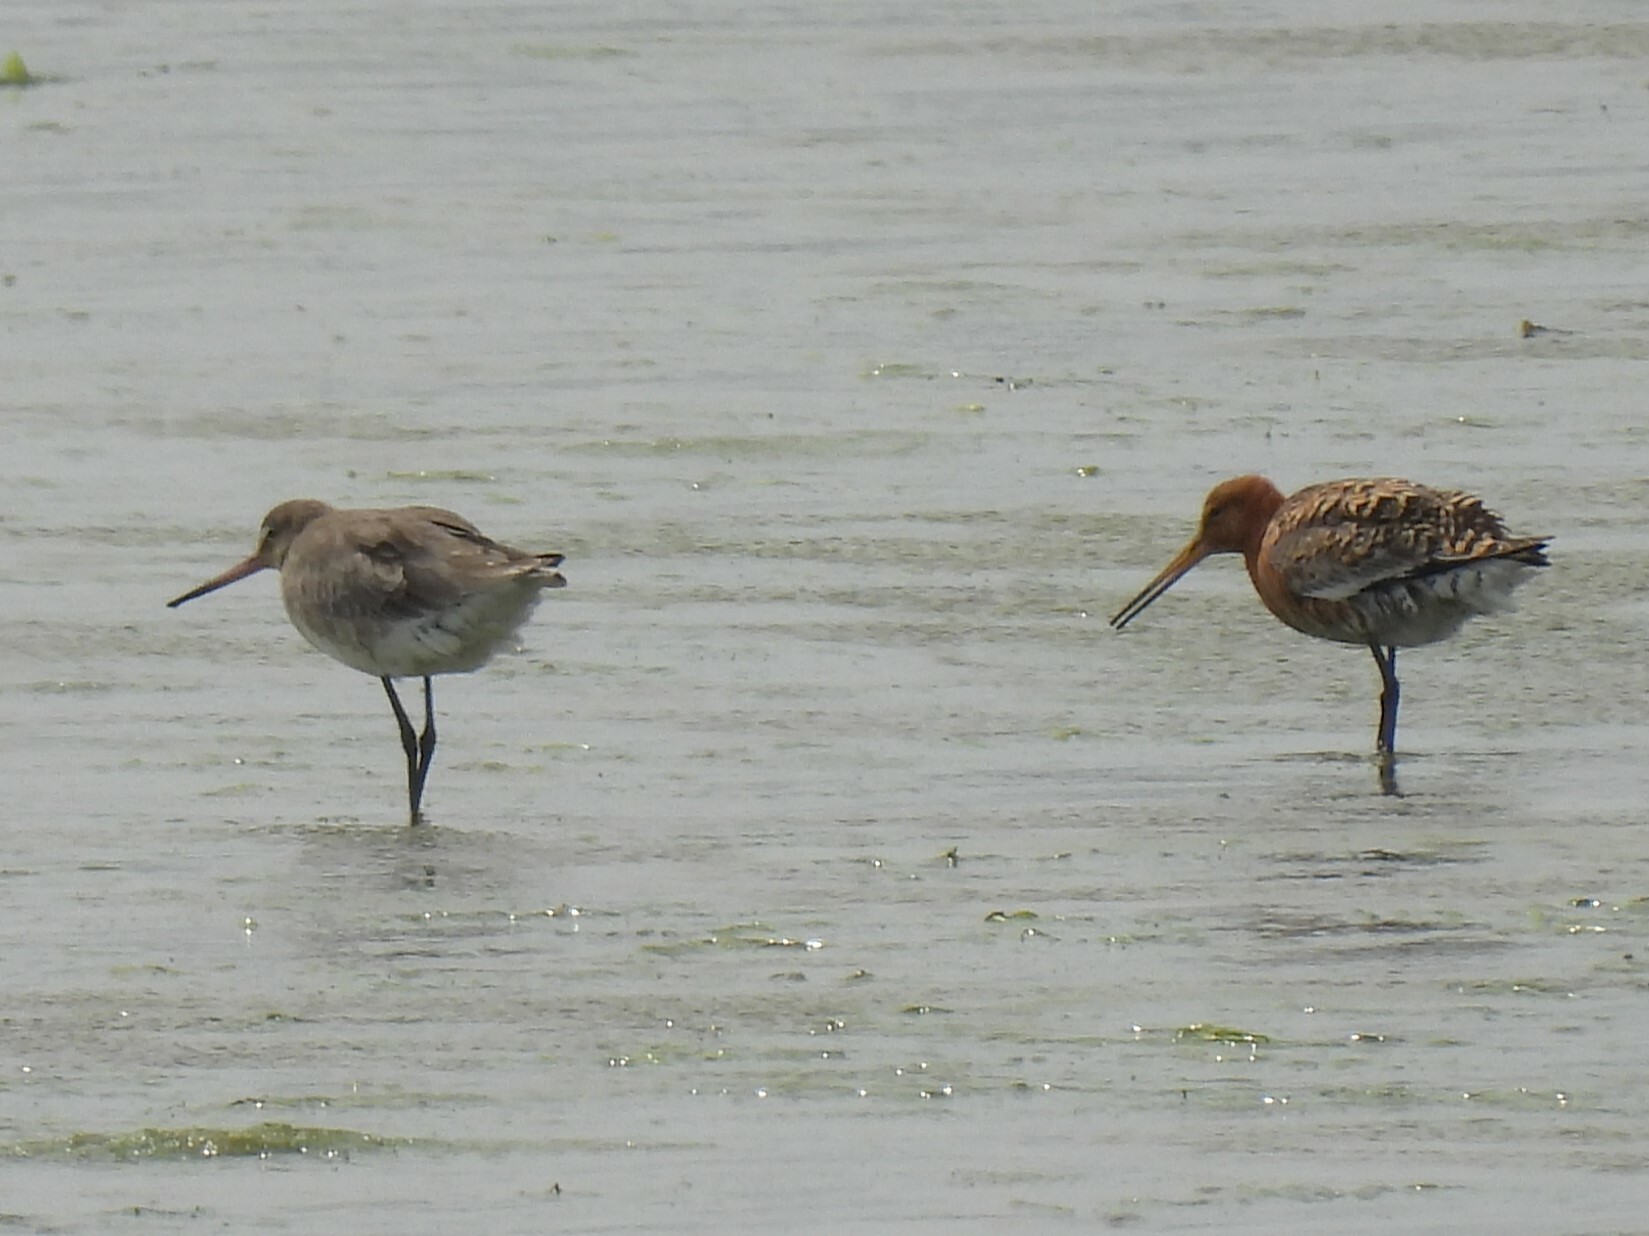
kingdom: Animalia
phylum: Chordata
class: Aves
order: Charadriiformes
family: Scolopacidae
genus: Limosa
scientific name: Limosa limosa
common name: Black-tailed godwit
